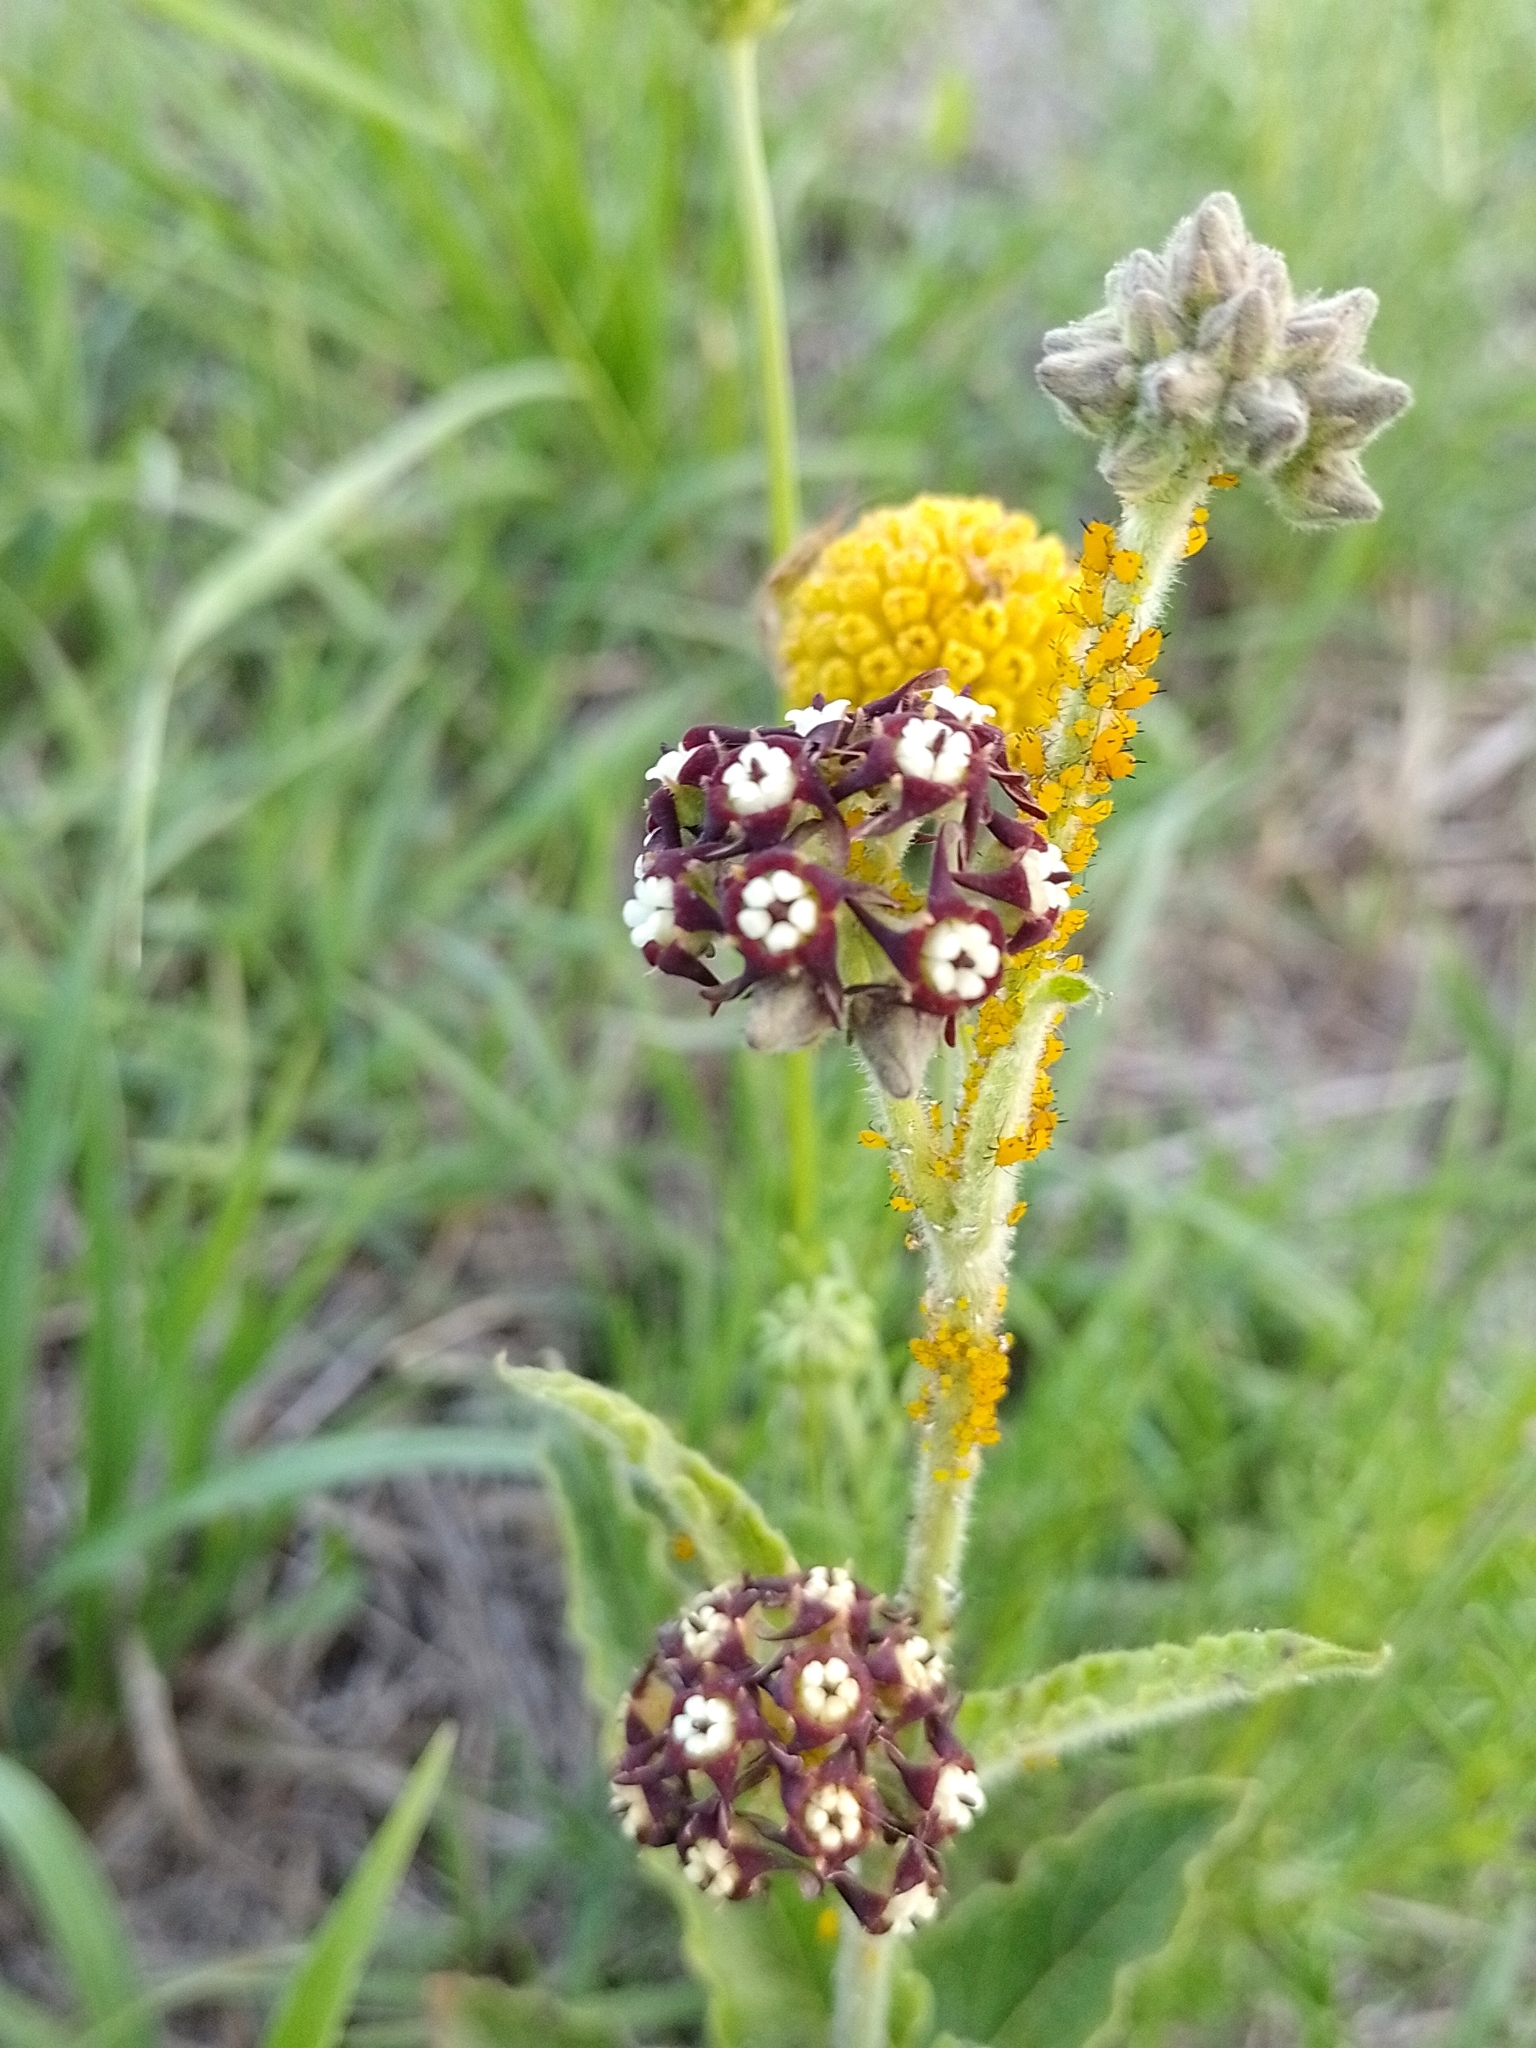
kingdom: Plantae
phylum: Tracheophyta
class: Magnoliopsida
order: Gentianales
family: Apocynaceae
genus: Oxypetalum
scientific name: Oxypetalum arnottianum
